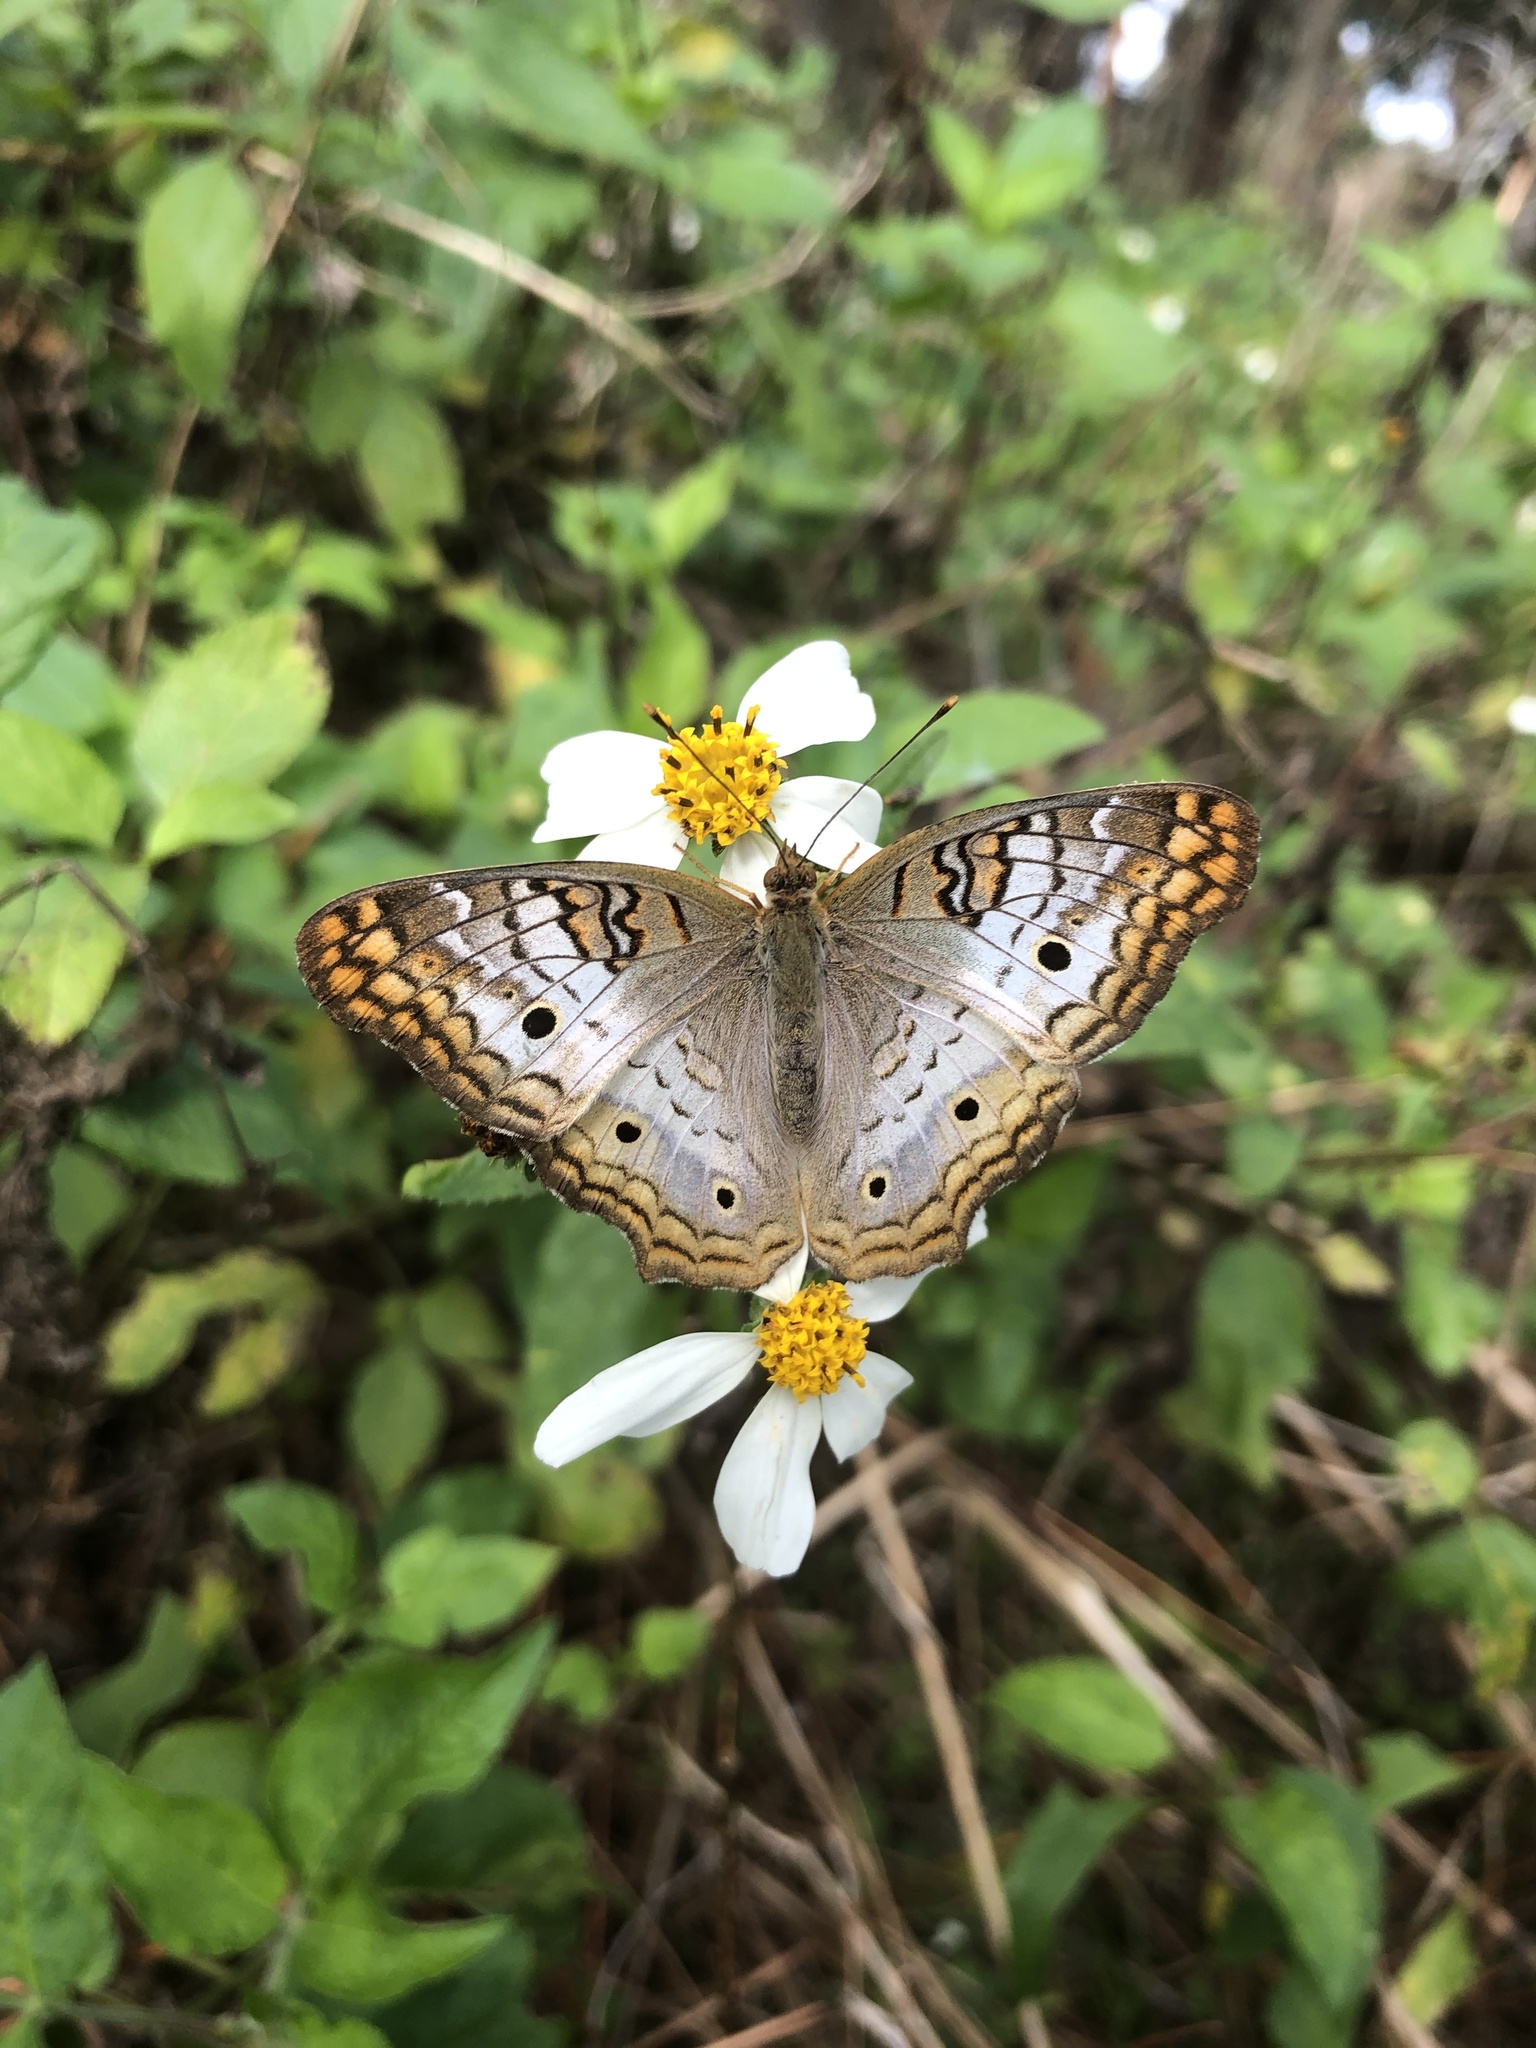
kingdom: Animalia
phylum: Arthropoda
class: Insecta
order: Lepidoptera
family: Nymphalidae
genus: Anartia
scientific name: Anartia jatrophae
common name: White peacock
